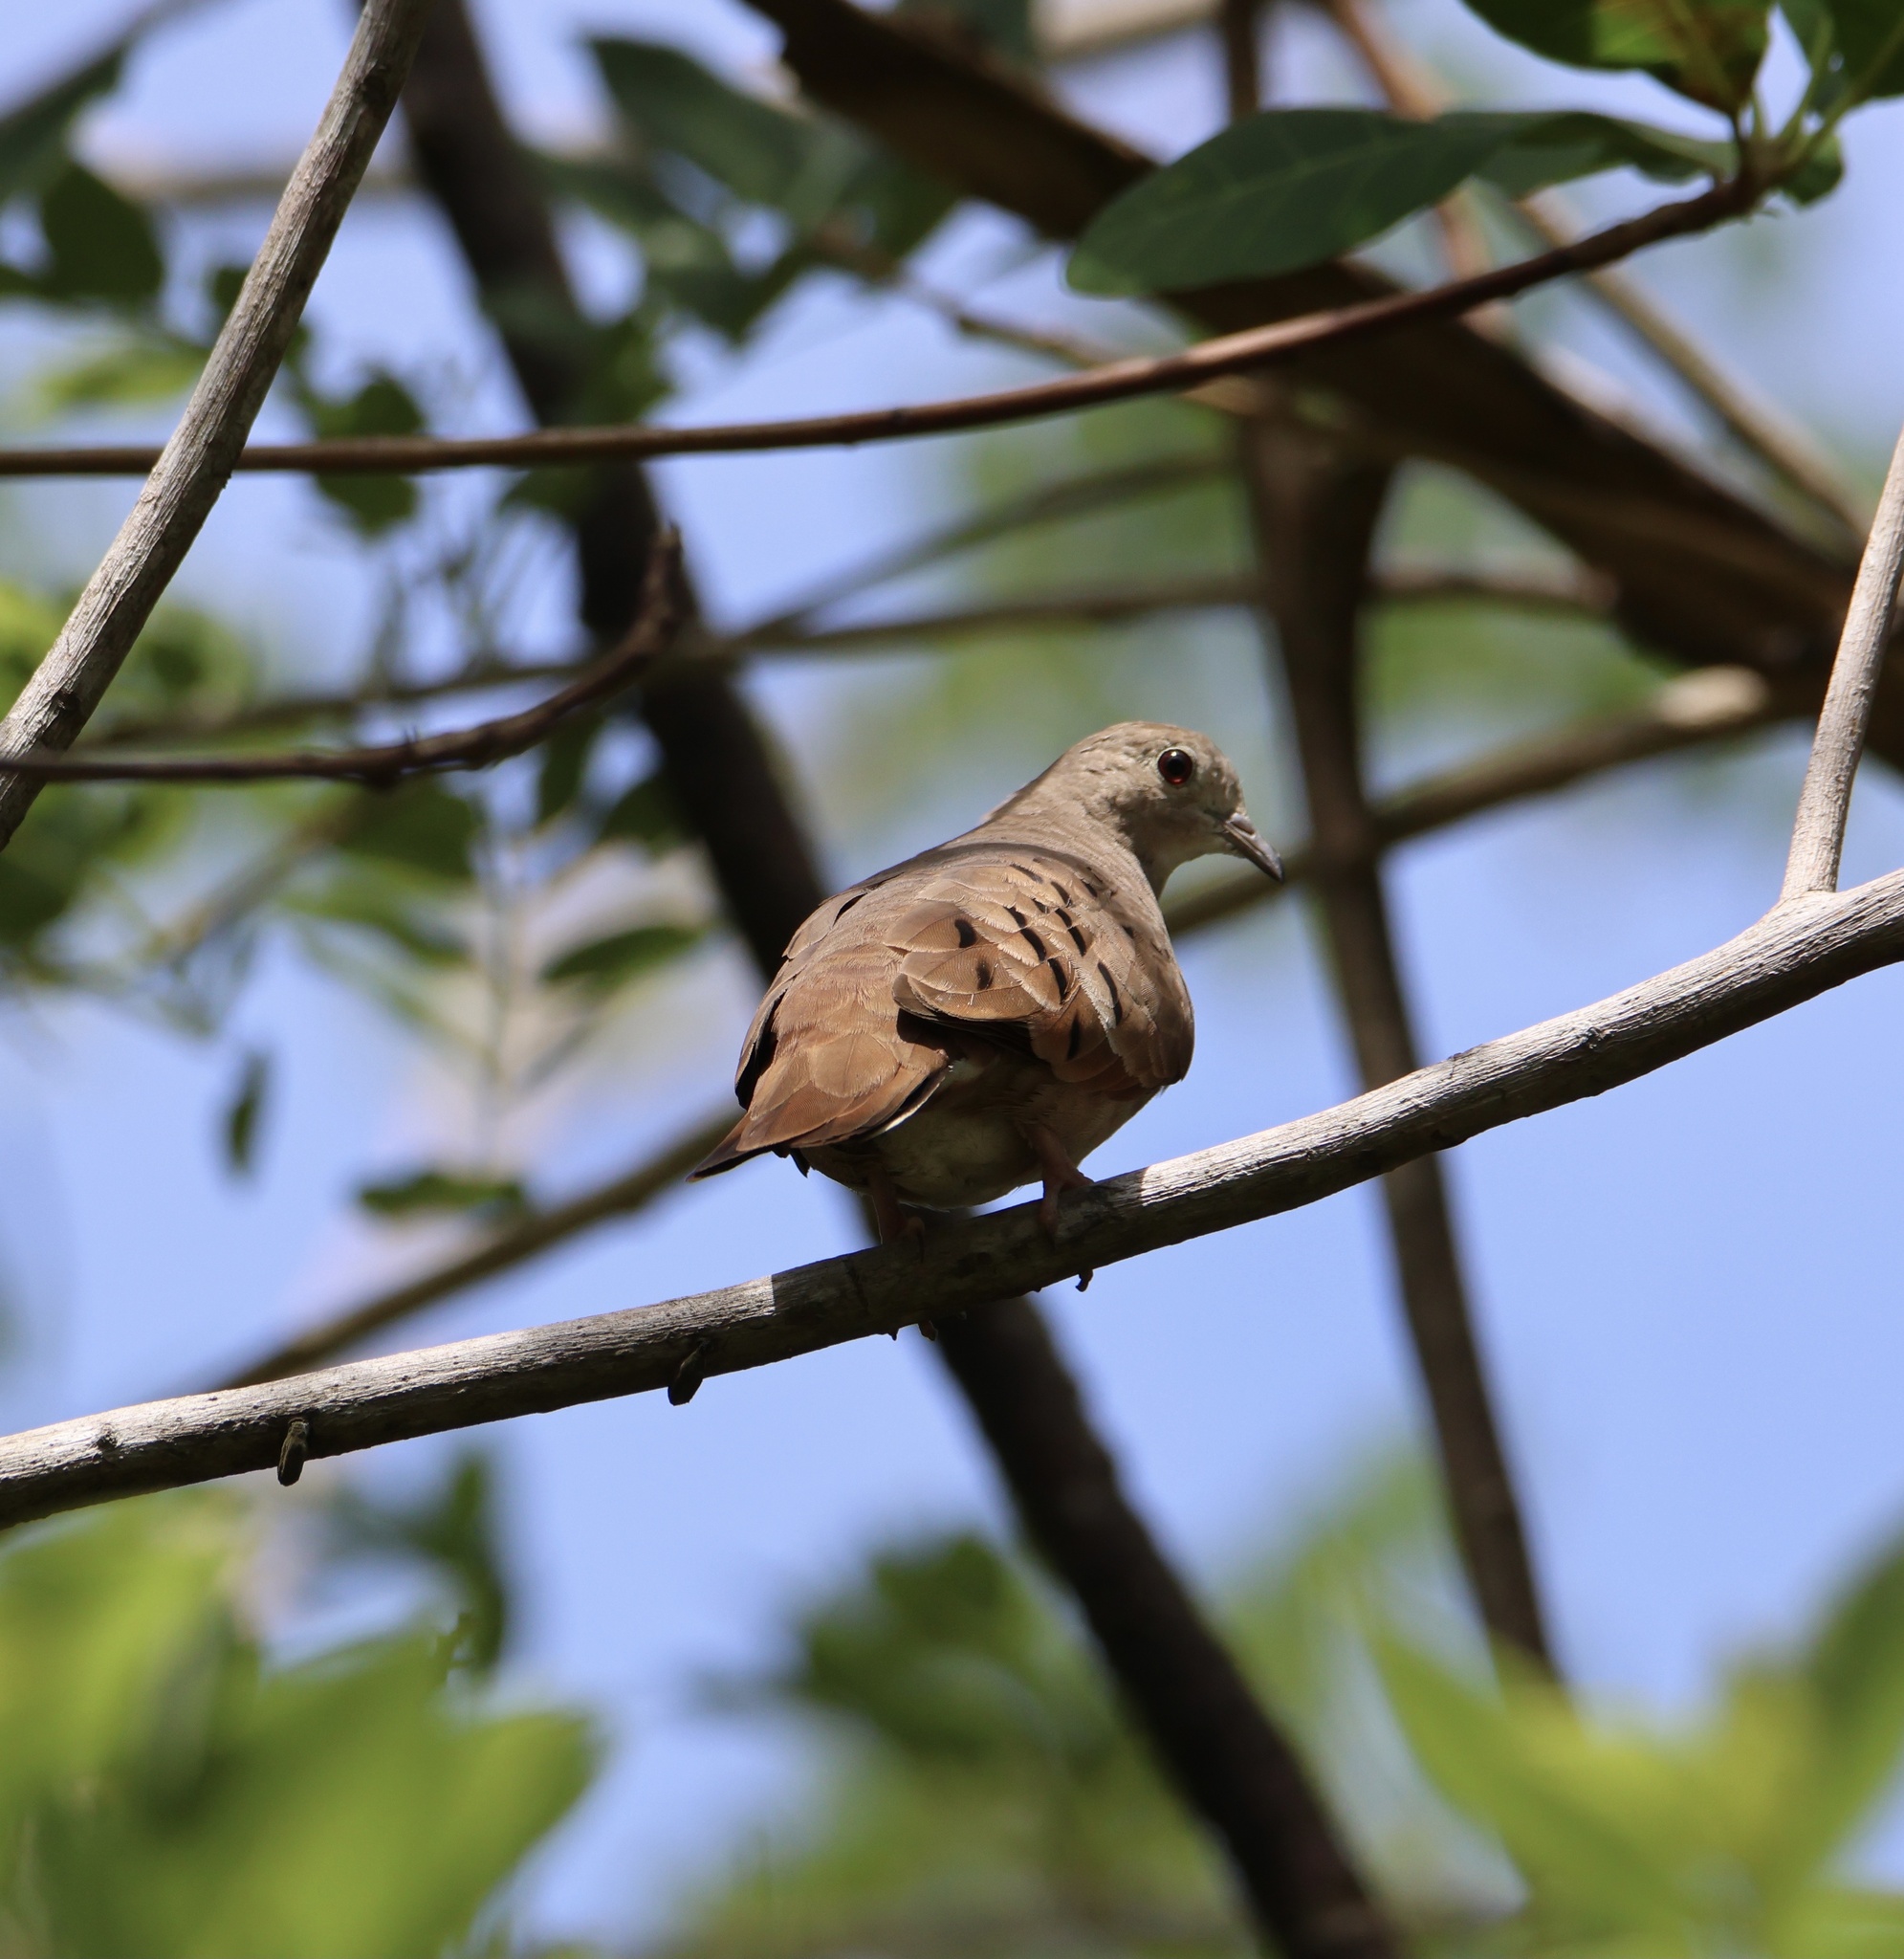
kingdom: Animalia
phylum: Chordata
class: Aves
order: Columbiformes
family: Columbidae
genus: Columbina
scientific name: Columbina talpacoti
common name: Ruddy ground dove
